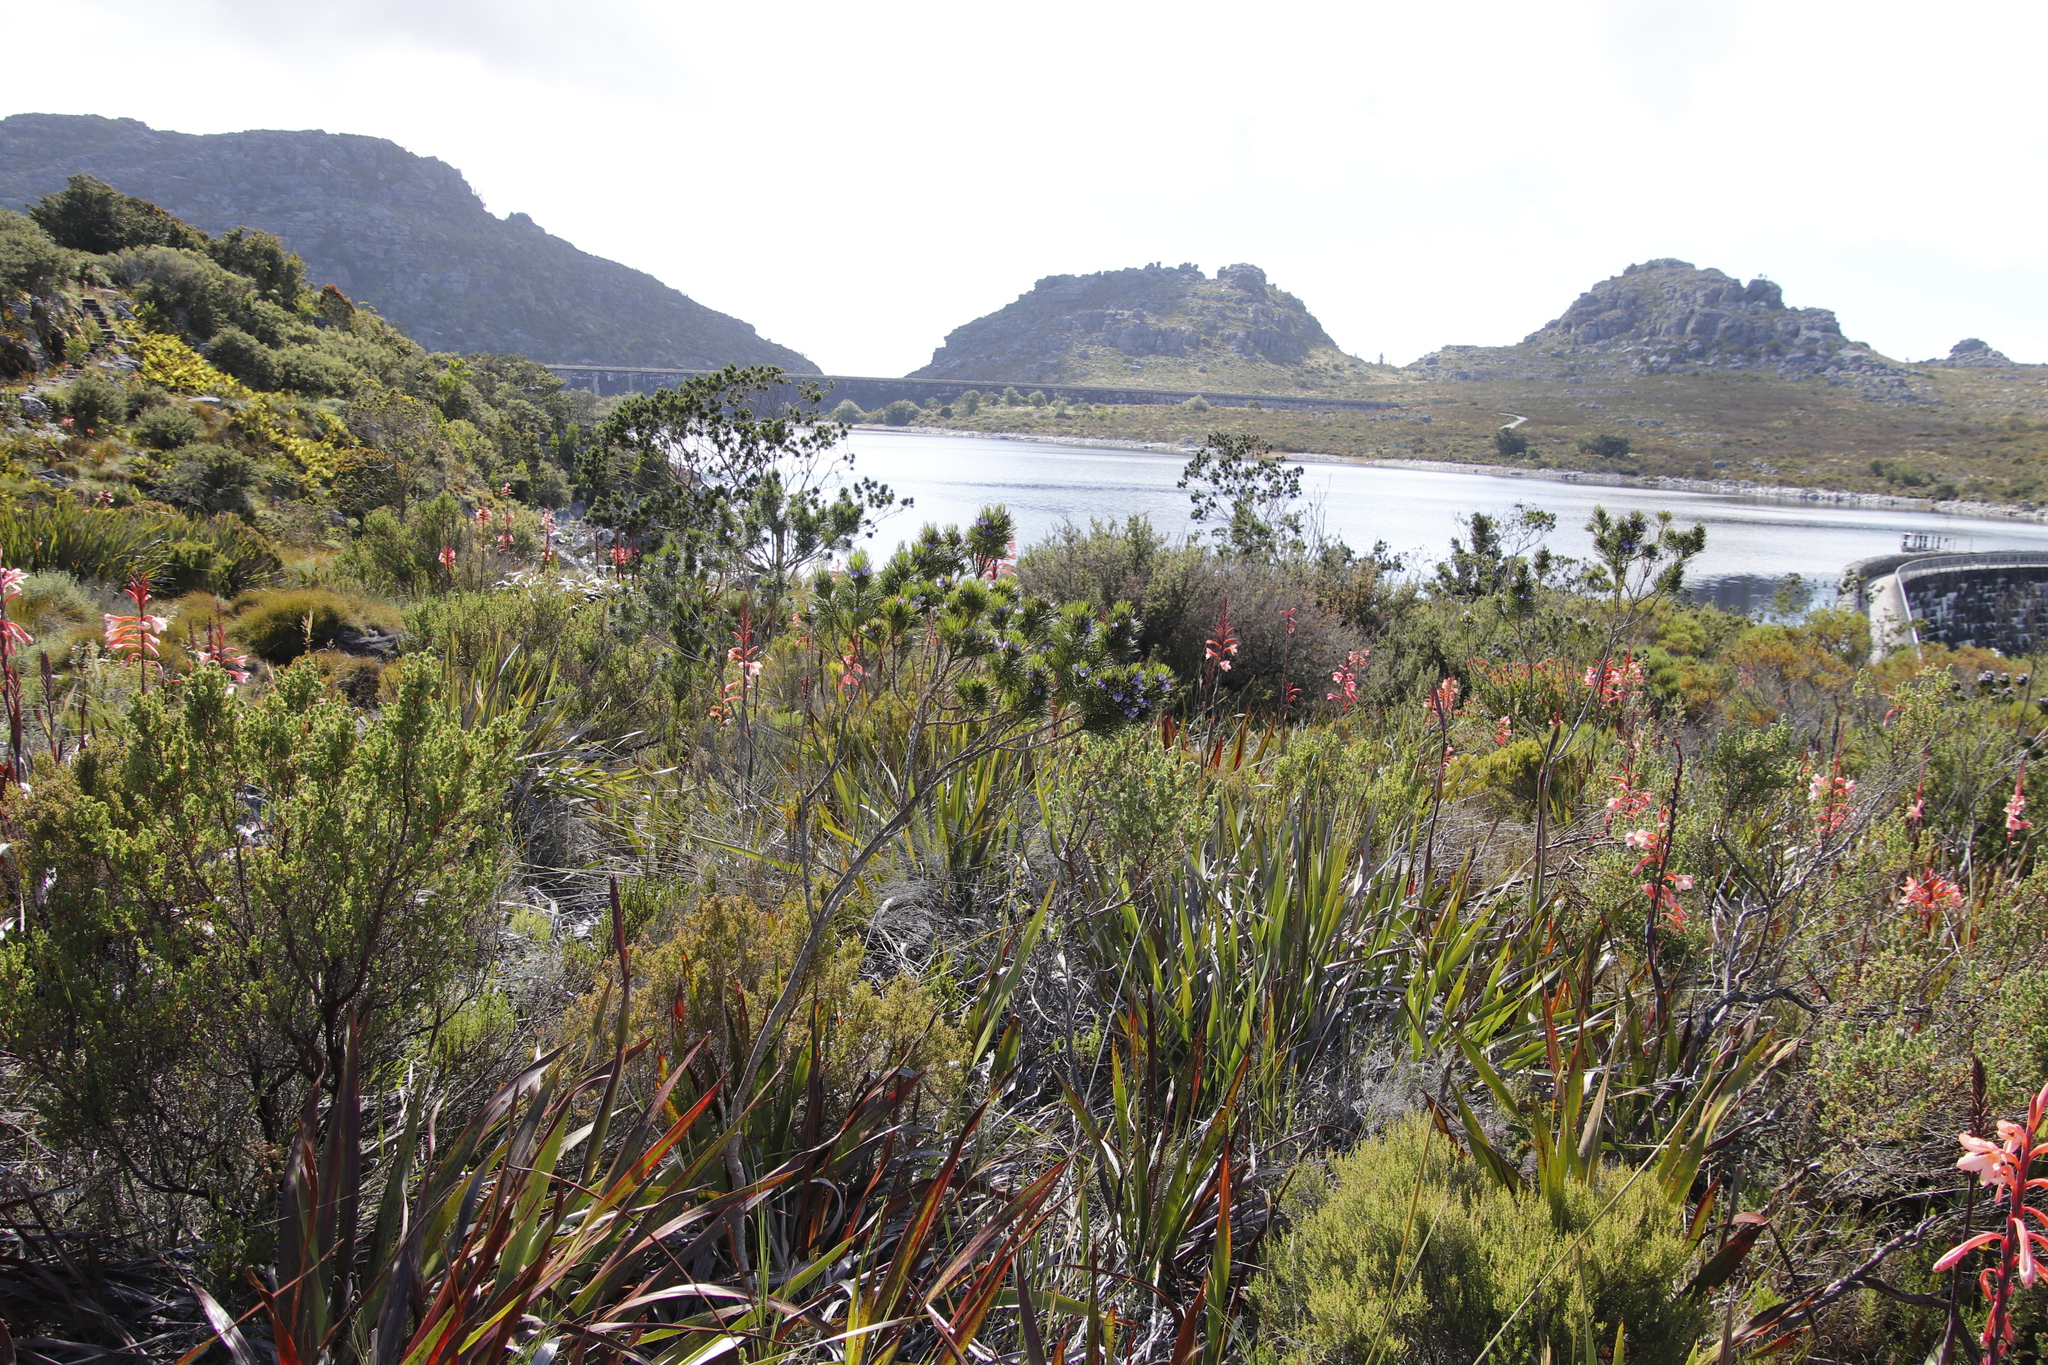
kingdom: Plantae
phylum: Tracheophyta
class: Magnoliopsida
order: Fabales
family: Fabaceae
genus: Psoralea
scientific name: Psoralea pinnata
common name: African scurfpea
